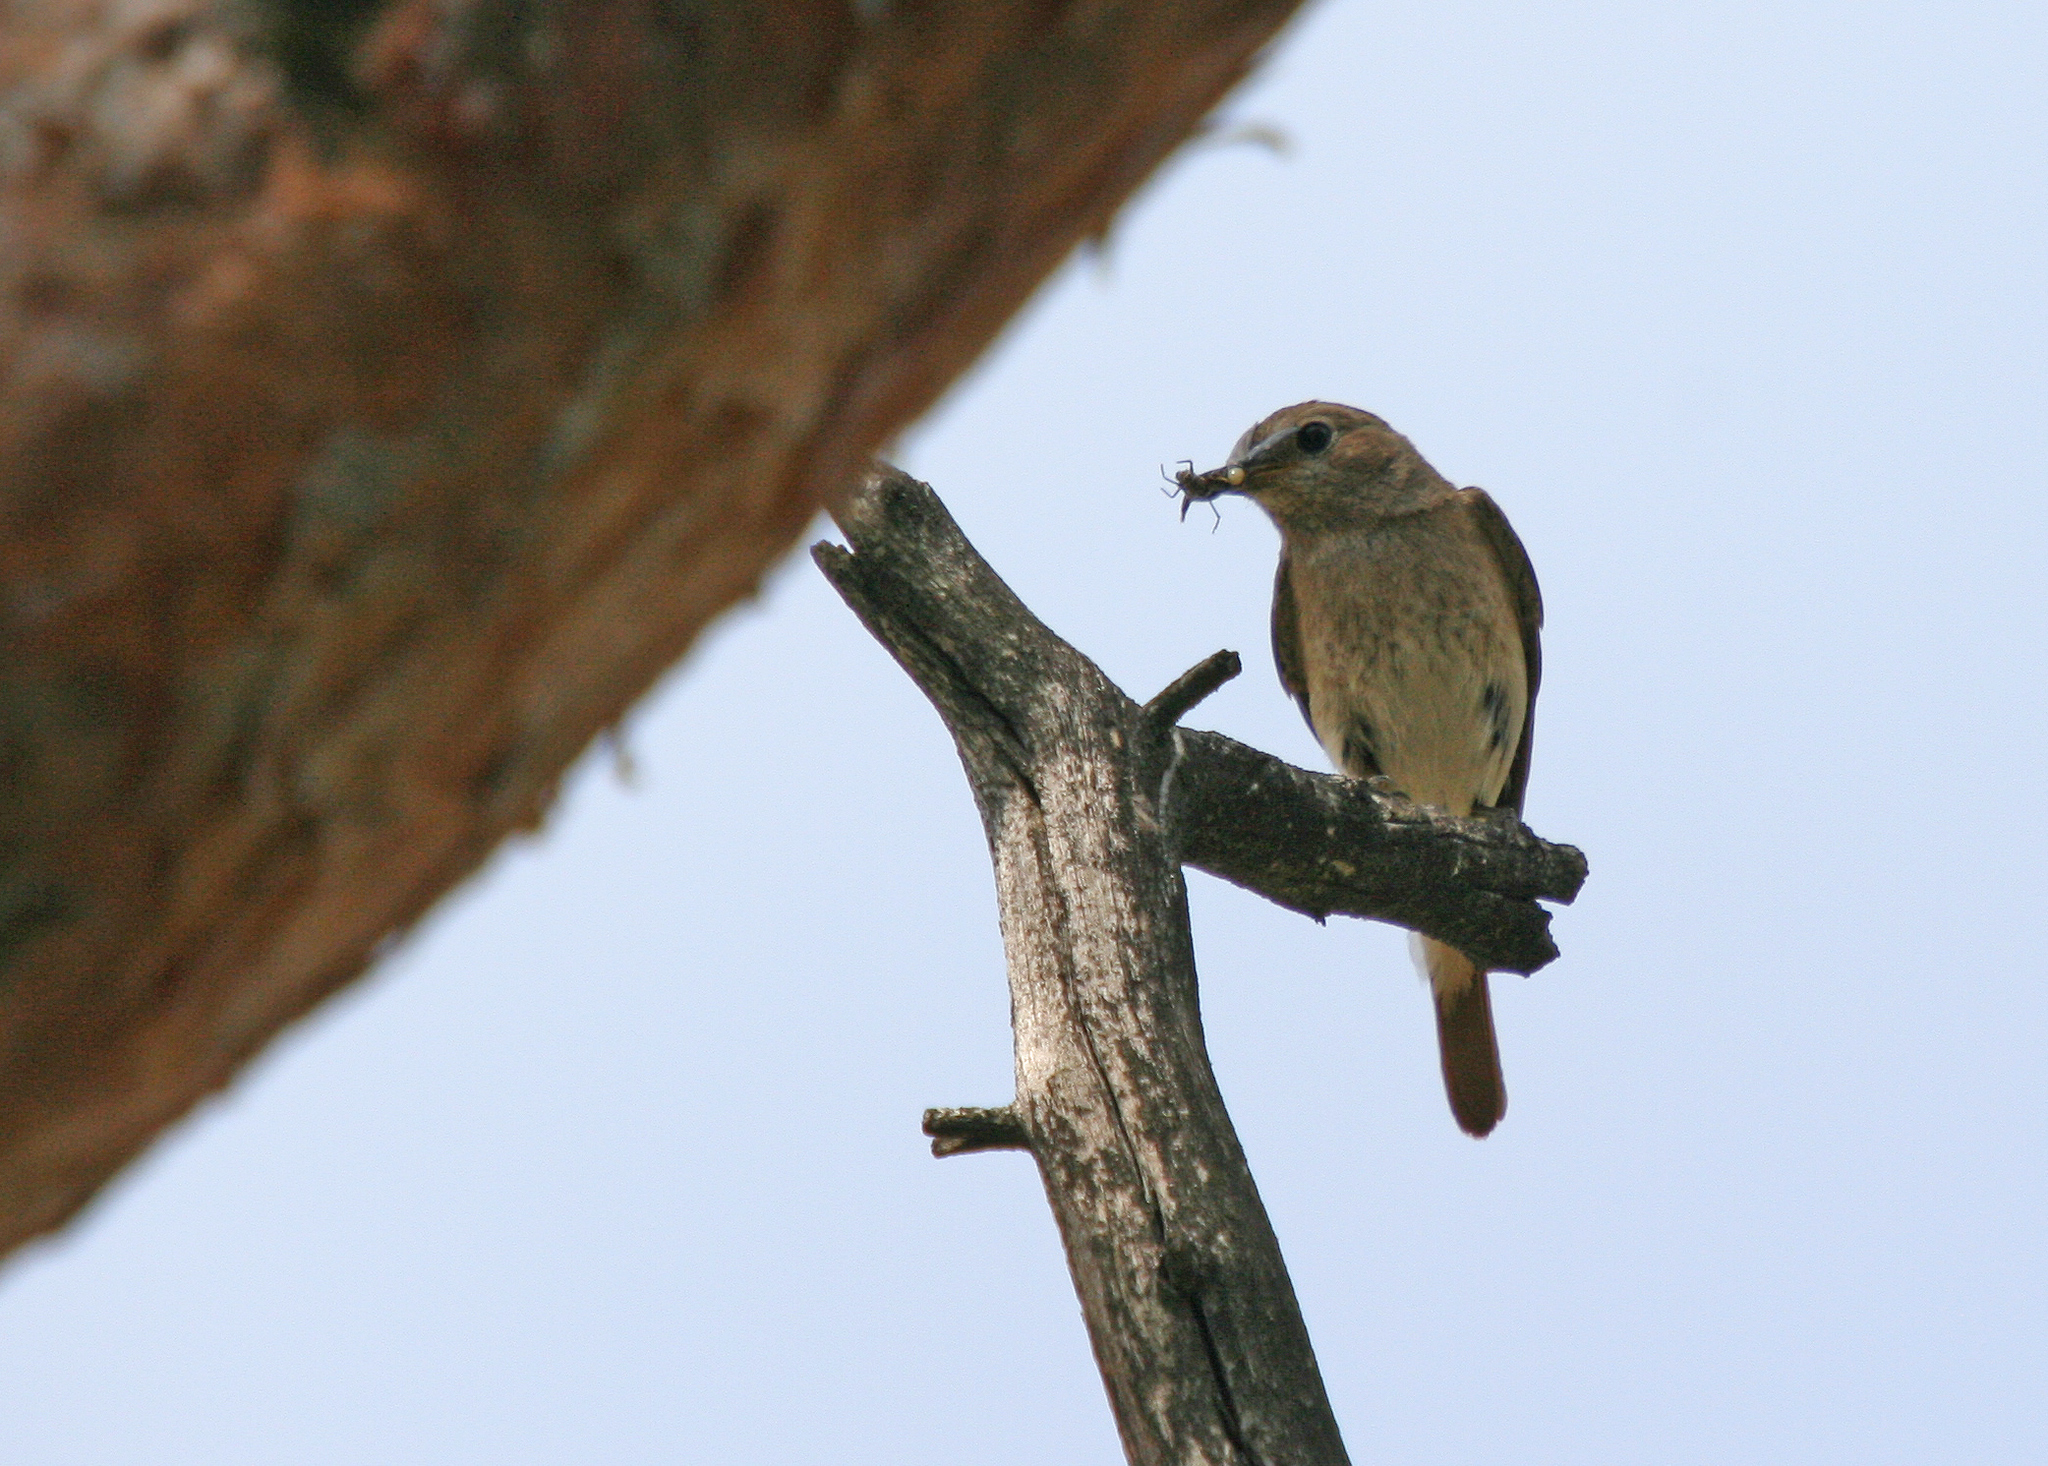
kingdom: Animalia
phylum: Chordata
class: Aves
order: Passeriformes
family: Muscicapidae
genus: Phoenicurus
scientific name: Phoenicurus phoenicurus
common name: Common redstart
